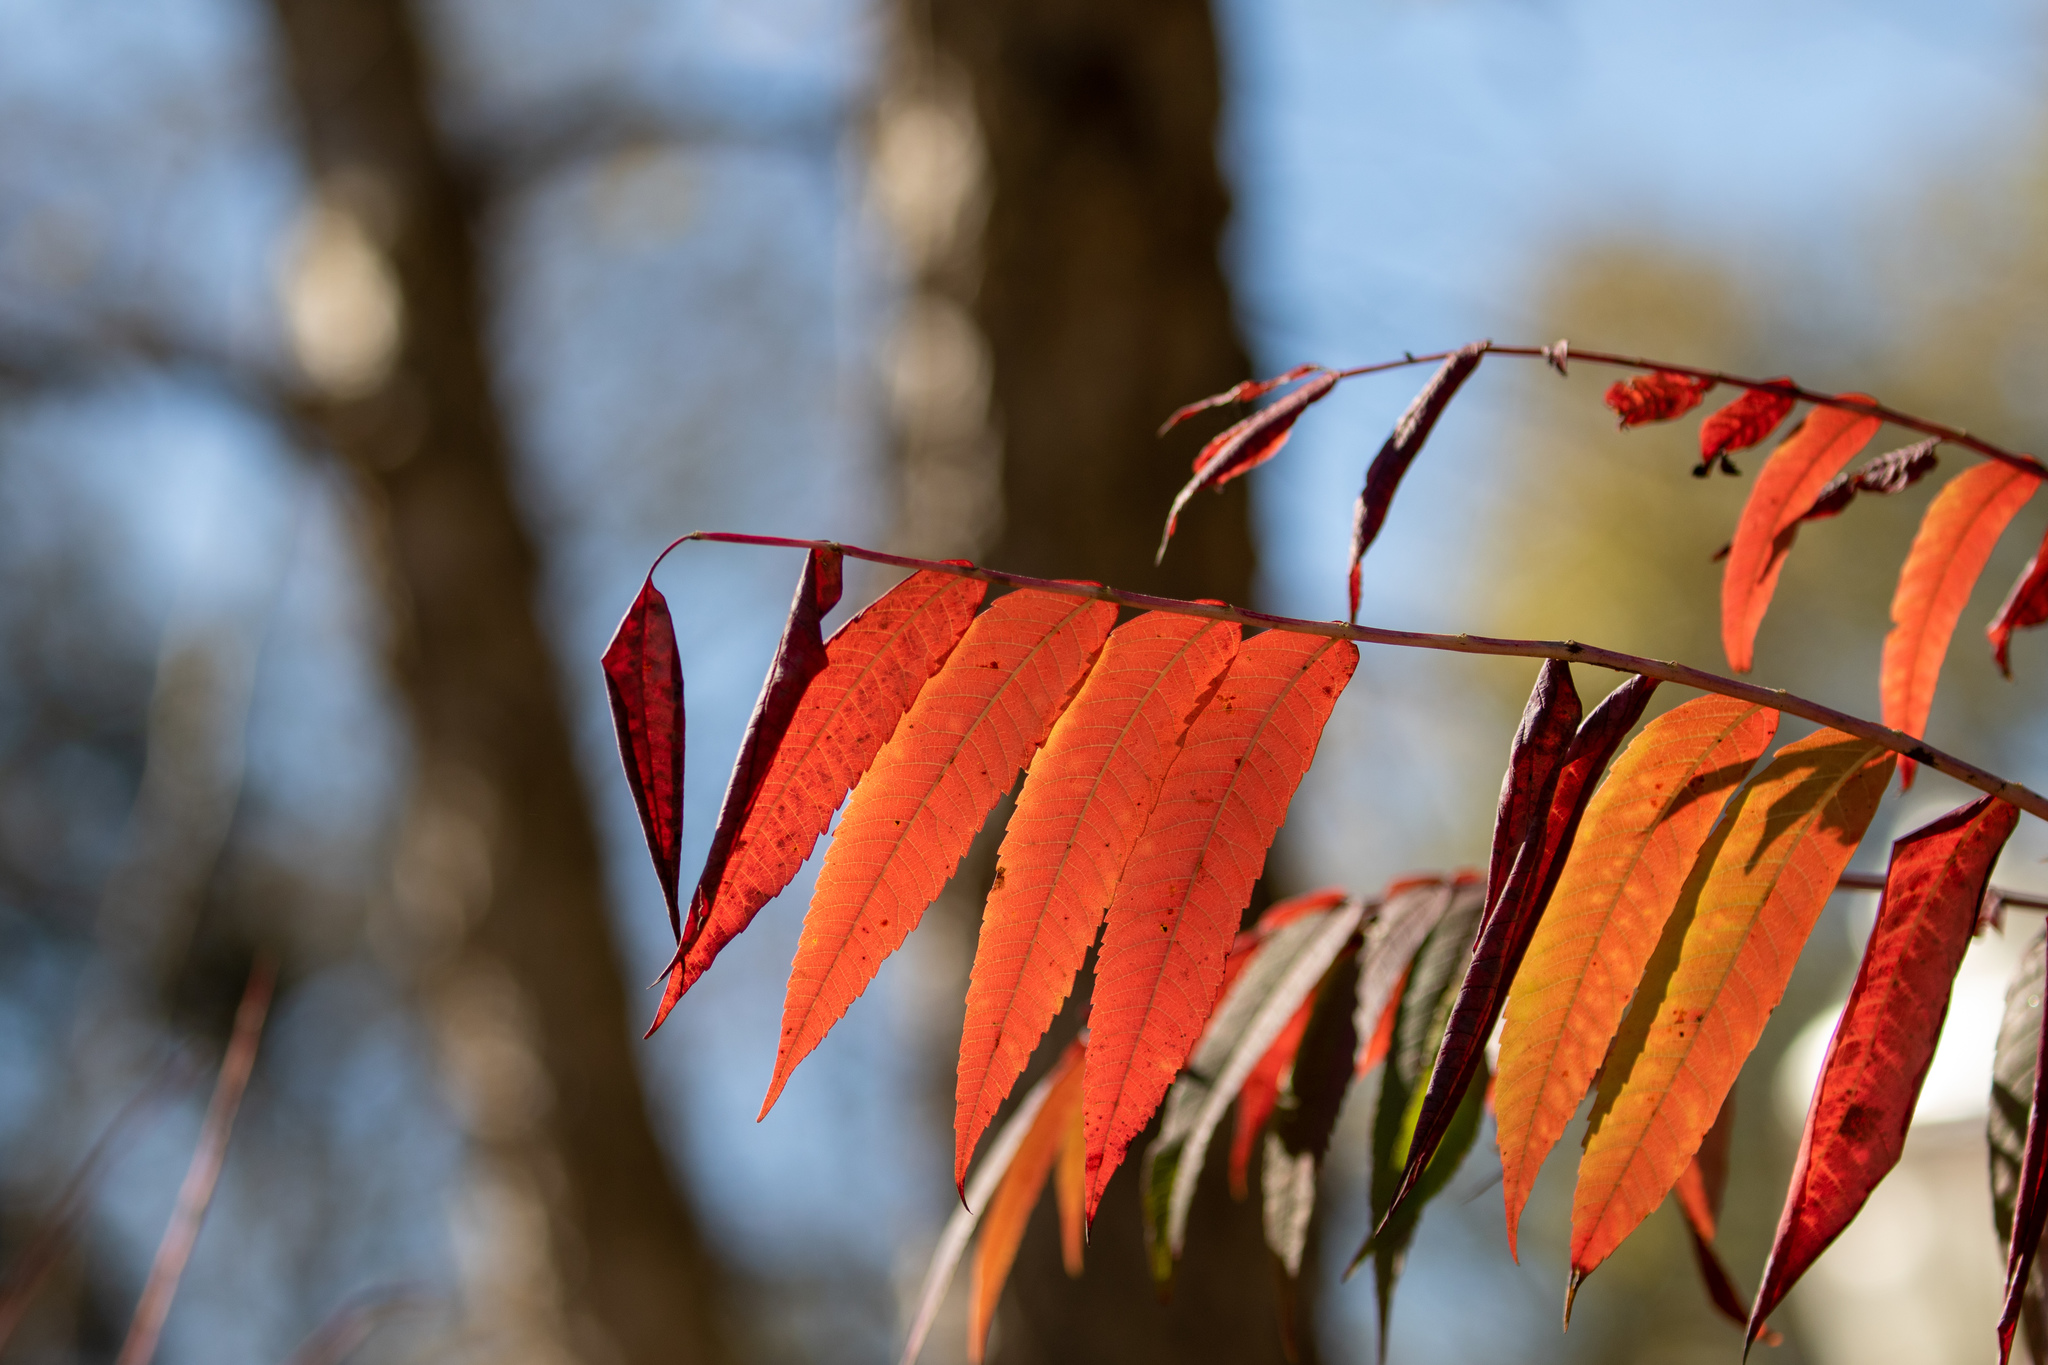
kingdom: Plantae
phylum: Tracheophyta
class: Magnoliopsida
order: Sapindales
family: Anacardiaceae
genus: Rhus
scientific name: Rhus glabra
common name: Scarlet sumac
